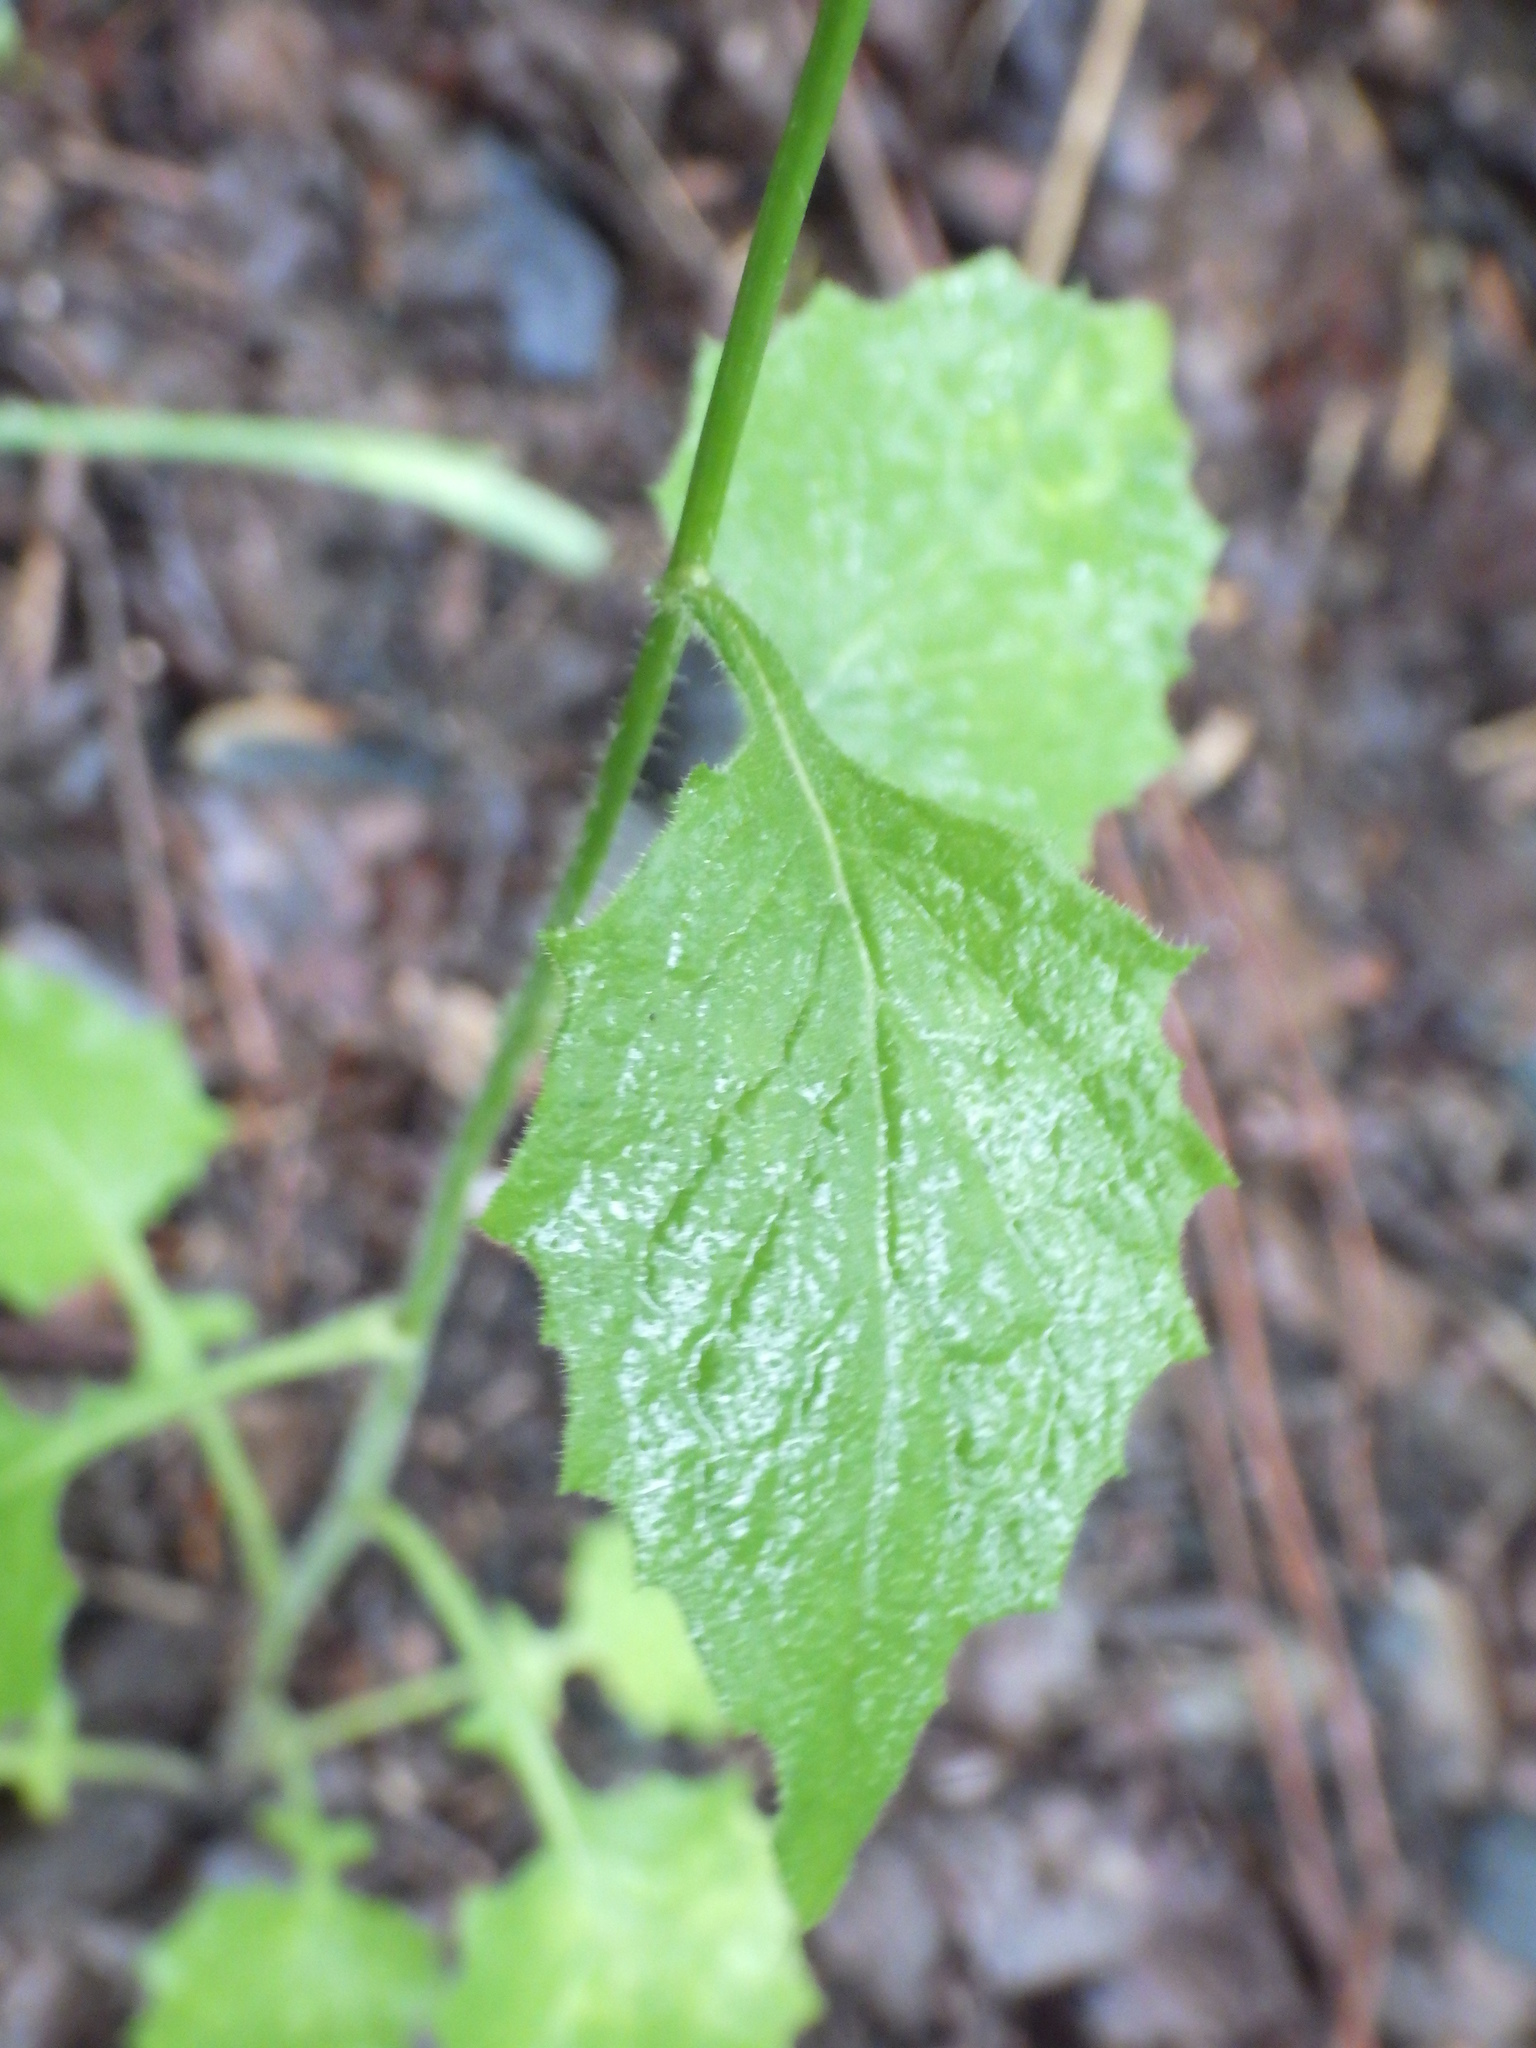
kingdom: Plantae
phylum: Tracheophyta
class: Magnoliopsida
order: Asterales
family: Asteraceae
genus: Lapsana
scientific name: Lapsana communis
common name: Nipplewort
